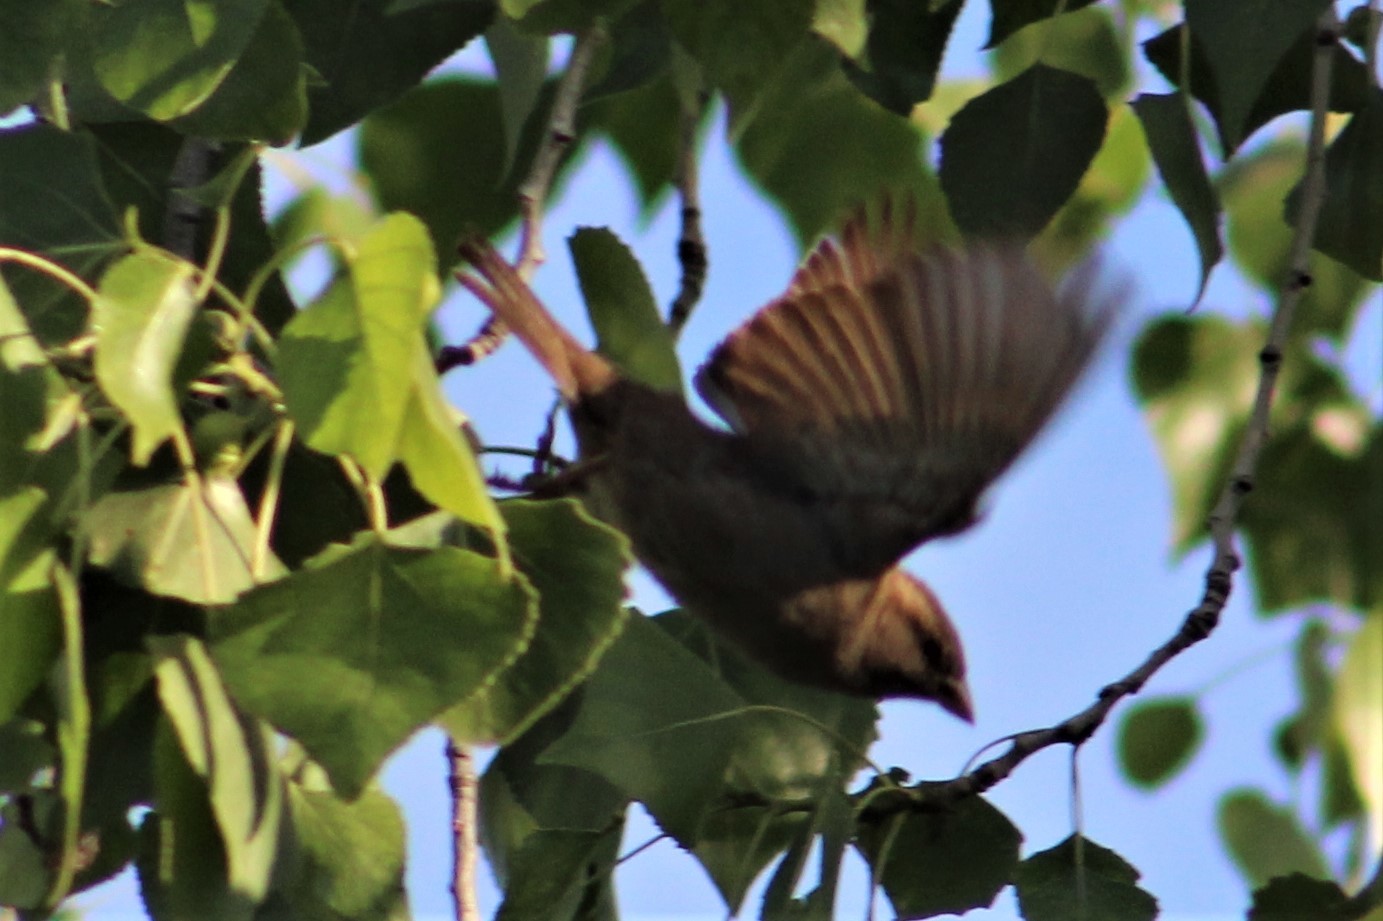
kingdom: Animalia
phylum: Chordata
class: Aves
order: Passeriformes
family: Passeridae
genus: Passer
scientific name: Passer domesticus
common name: House sparrow
